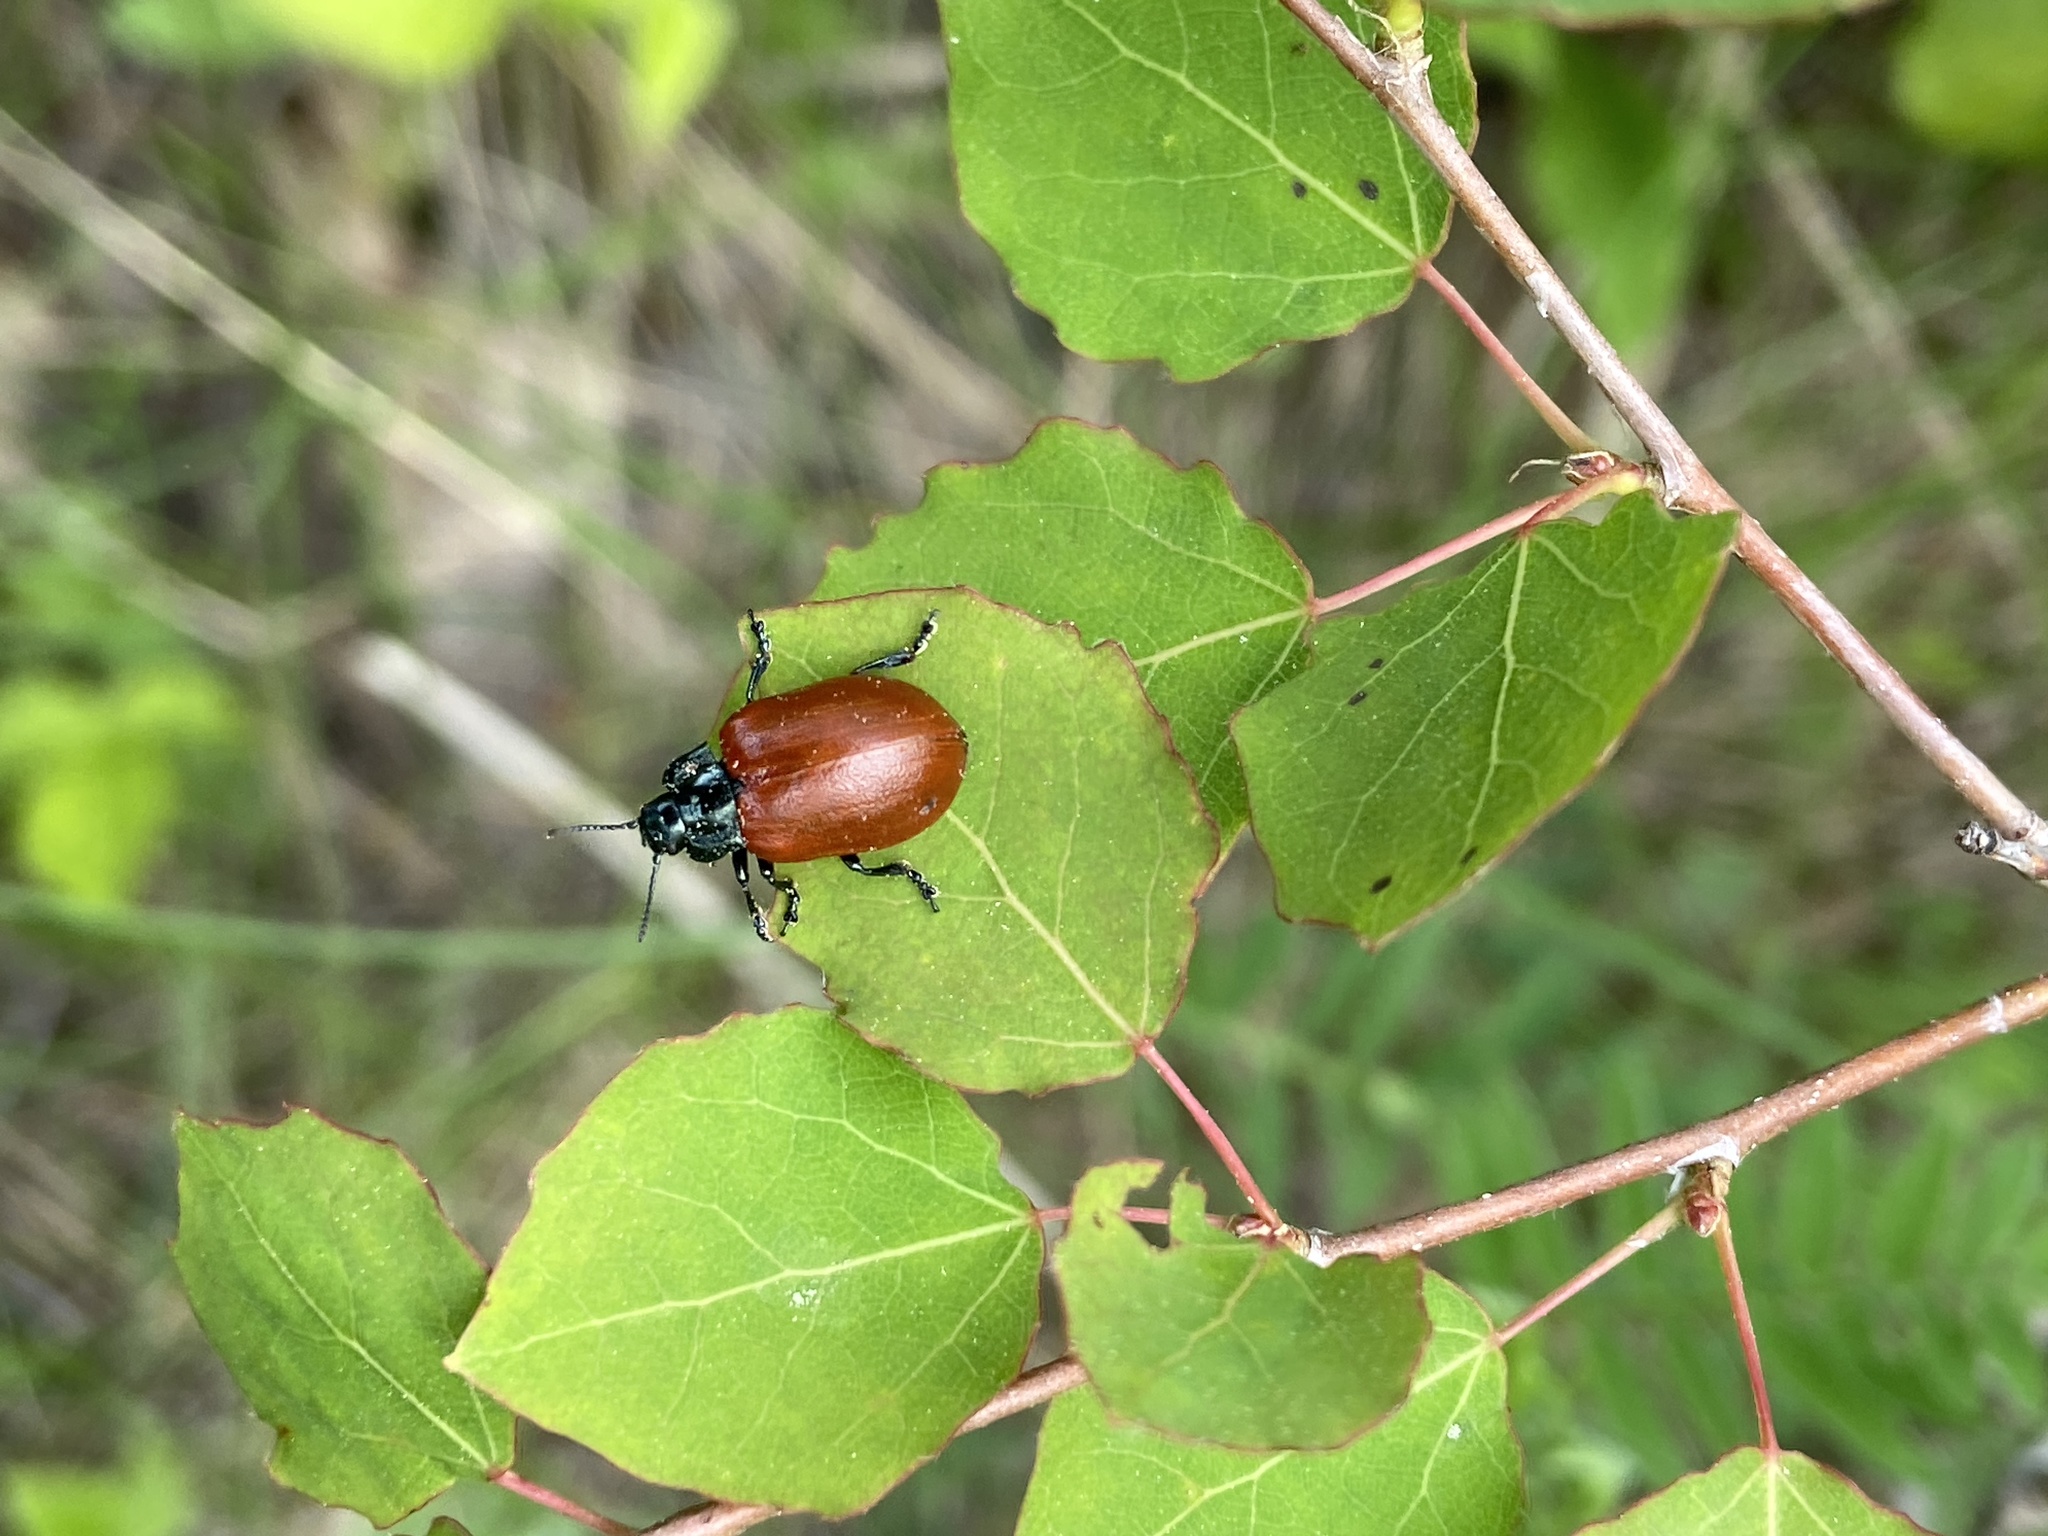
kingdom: Animalia
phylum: Arthropoda
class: Insecta
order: Coleoptera
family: Chrysomelidae
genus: Chrysomela
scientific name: Chrysomela populi
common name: Red poplar leaf beetle
